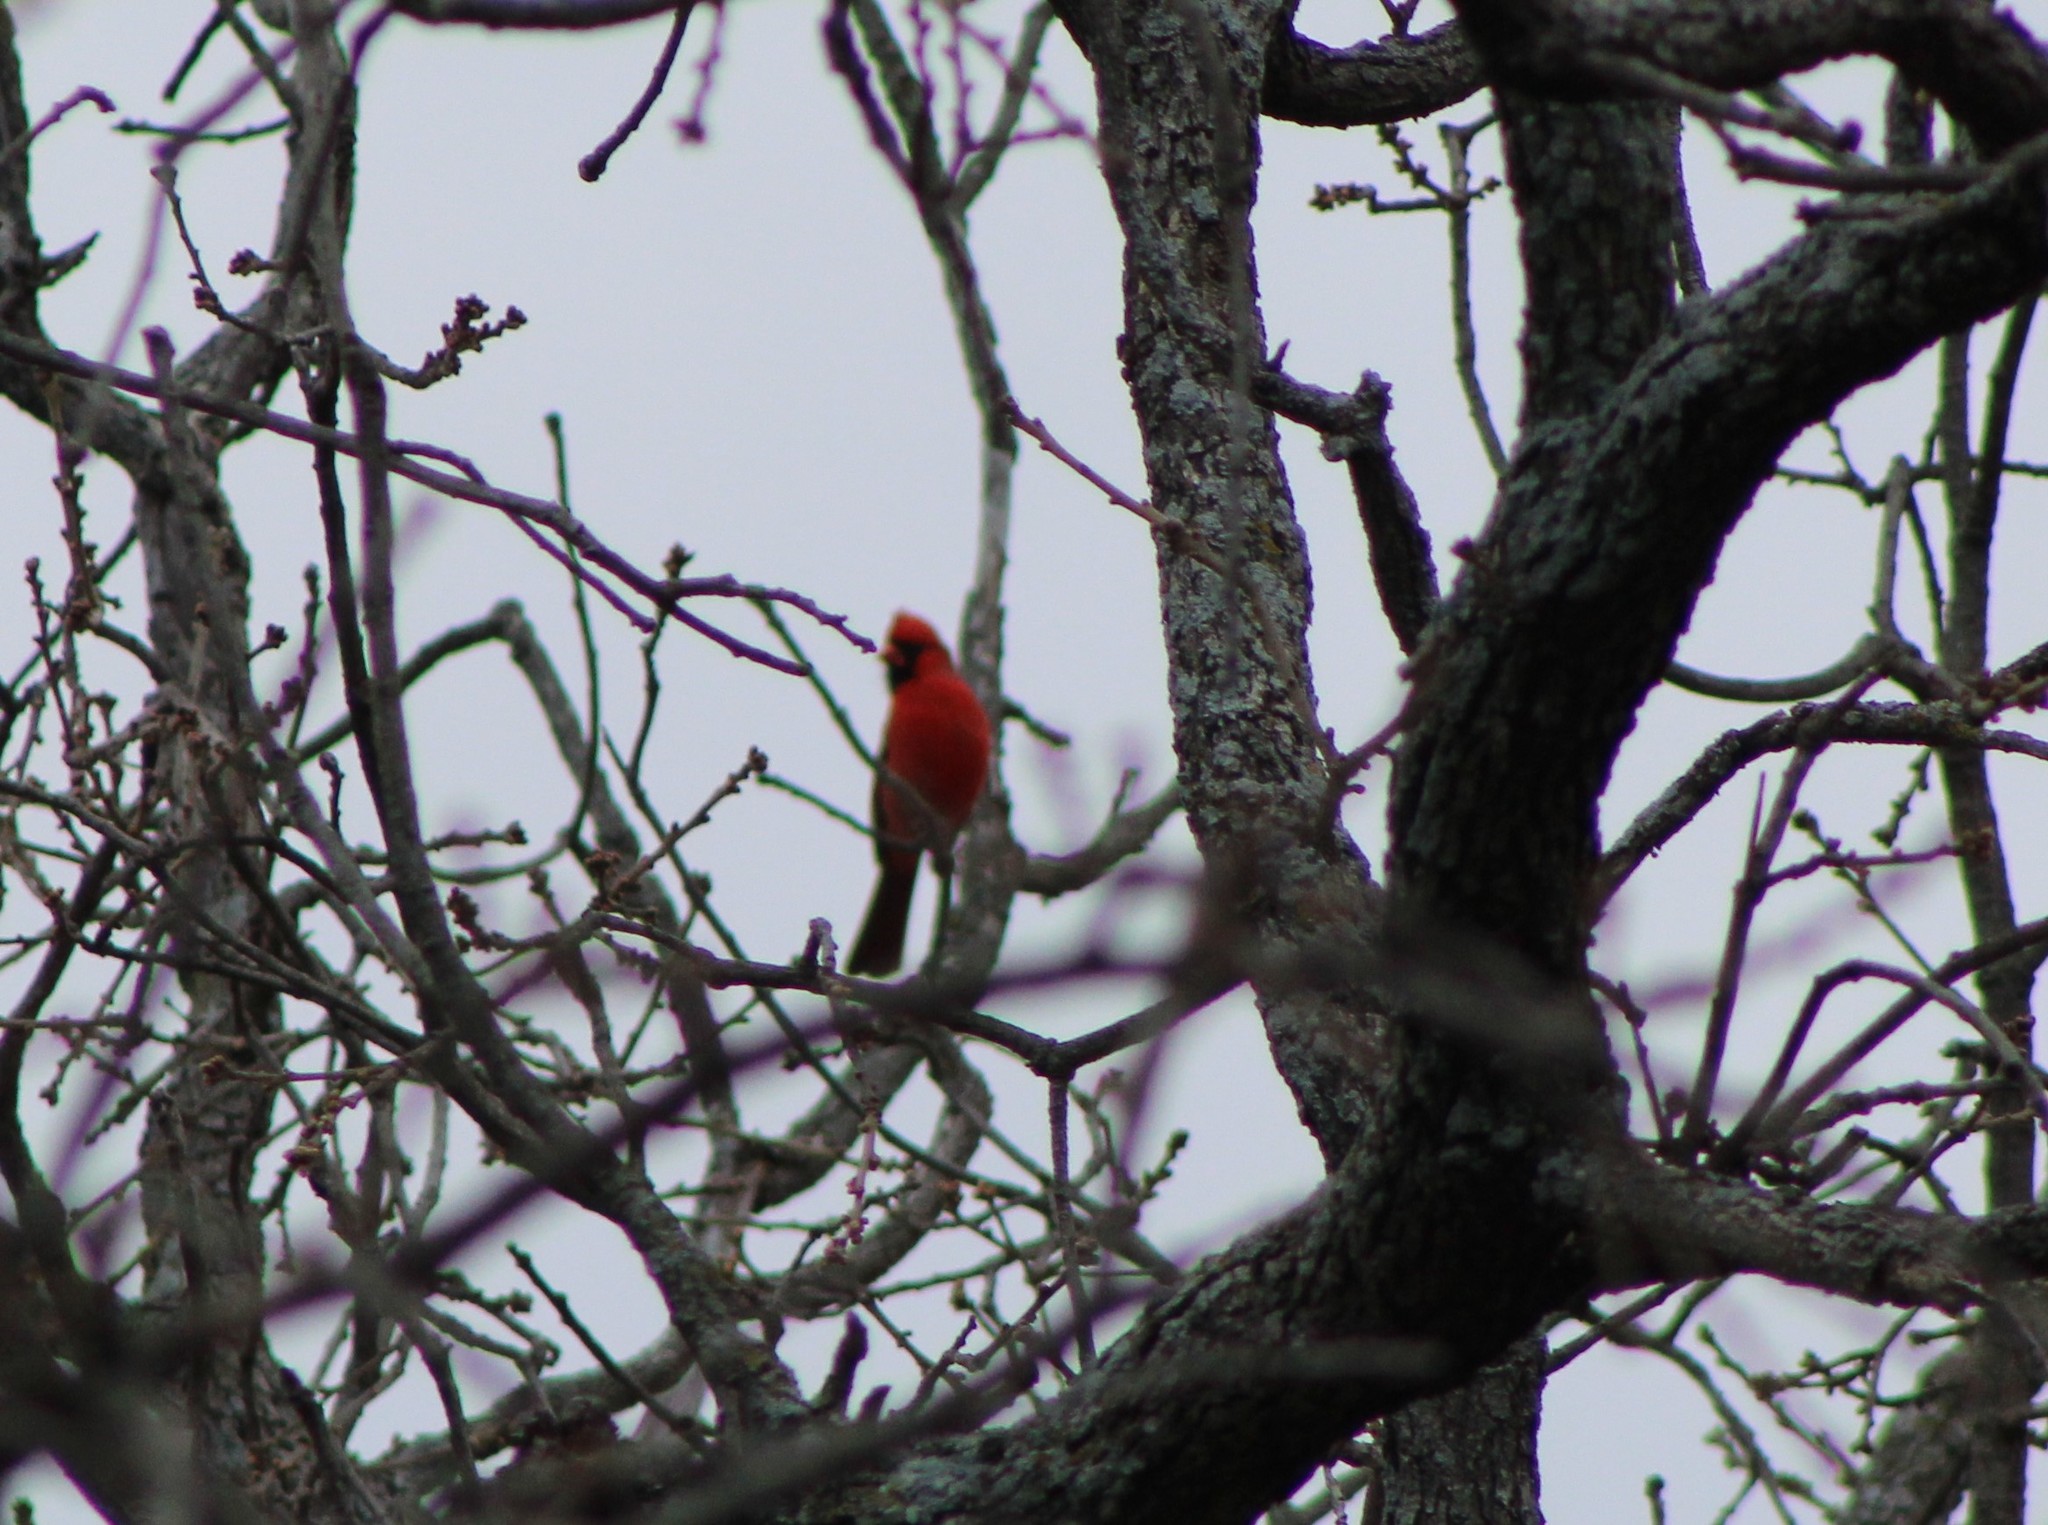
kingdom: Animalia
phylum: Chordata
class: Aves
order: Passeriformes
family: Cardinalidae
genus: Cardinalis
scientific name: Cardinalis cardinalis
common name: Northern cardinal
